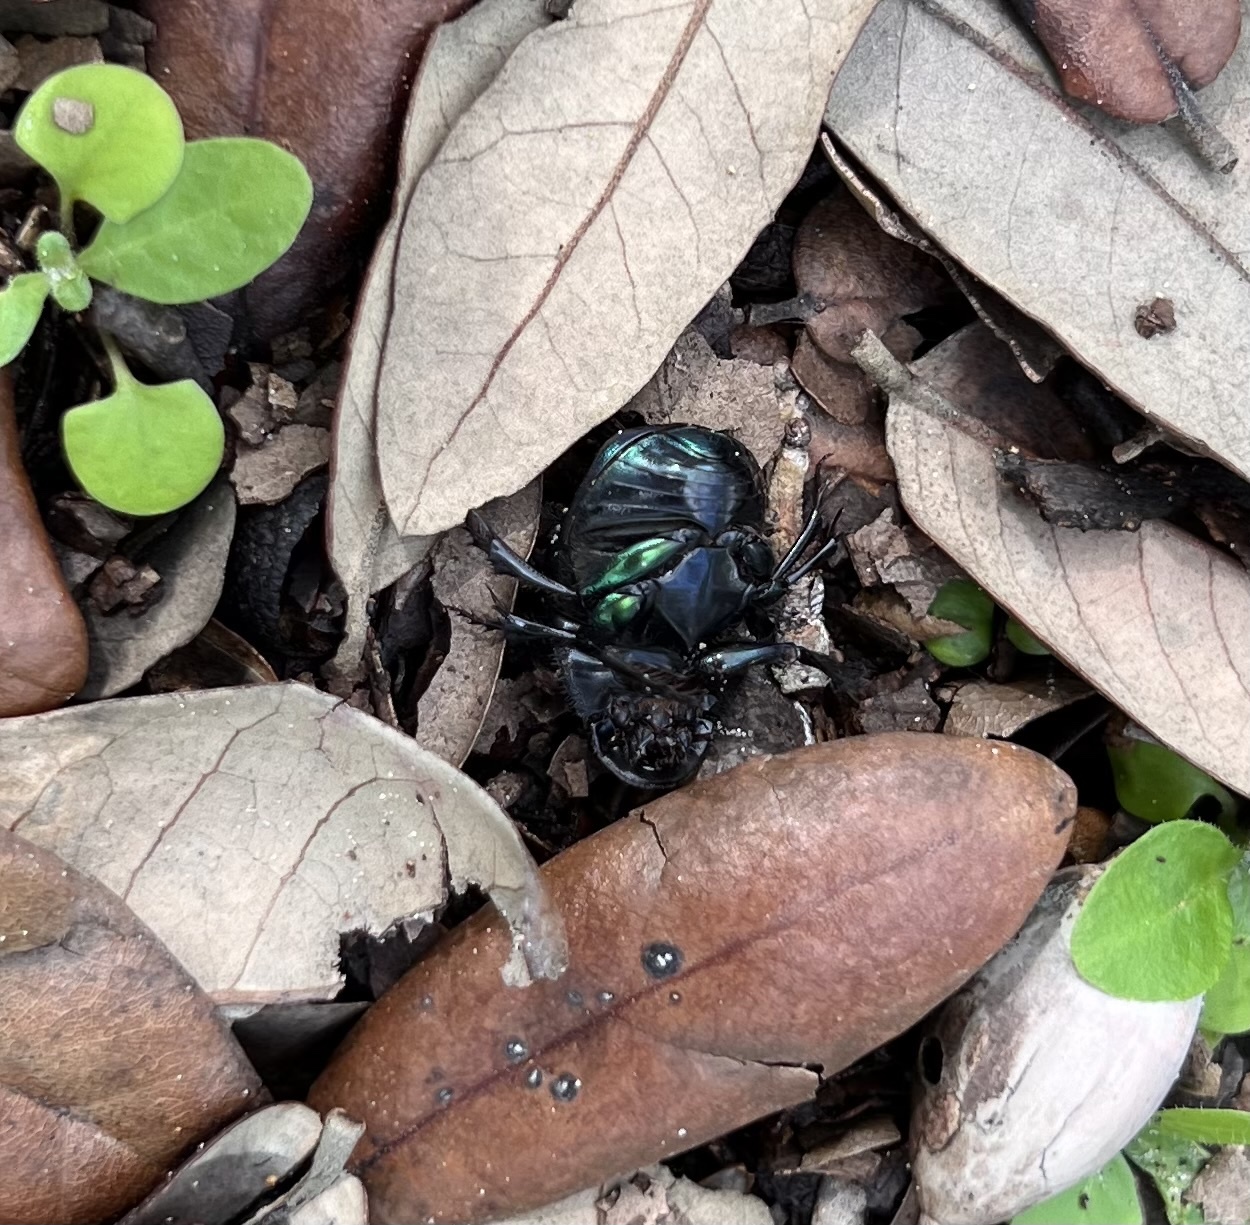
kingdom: Animalia
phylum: Arthropoda
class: Insecta
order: Coleoptera
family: Scarabaeidae
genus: Phanaeus
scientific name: Phanaeus difformis
